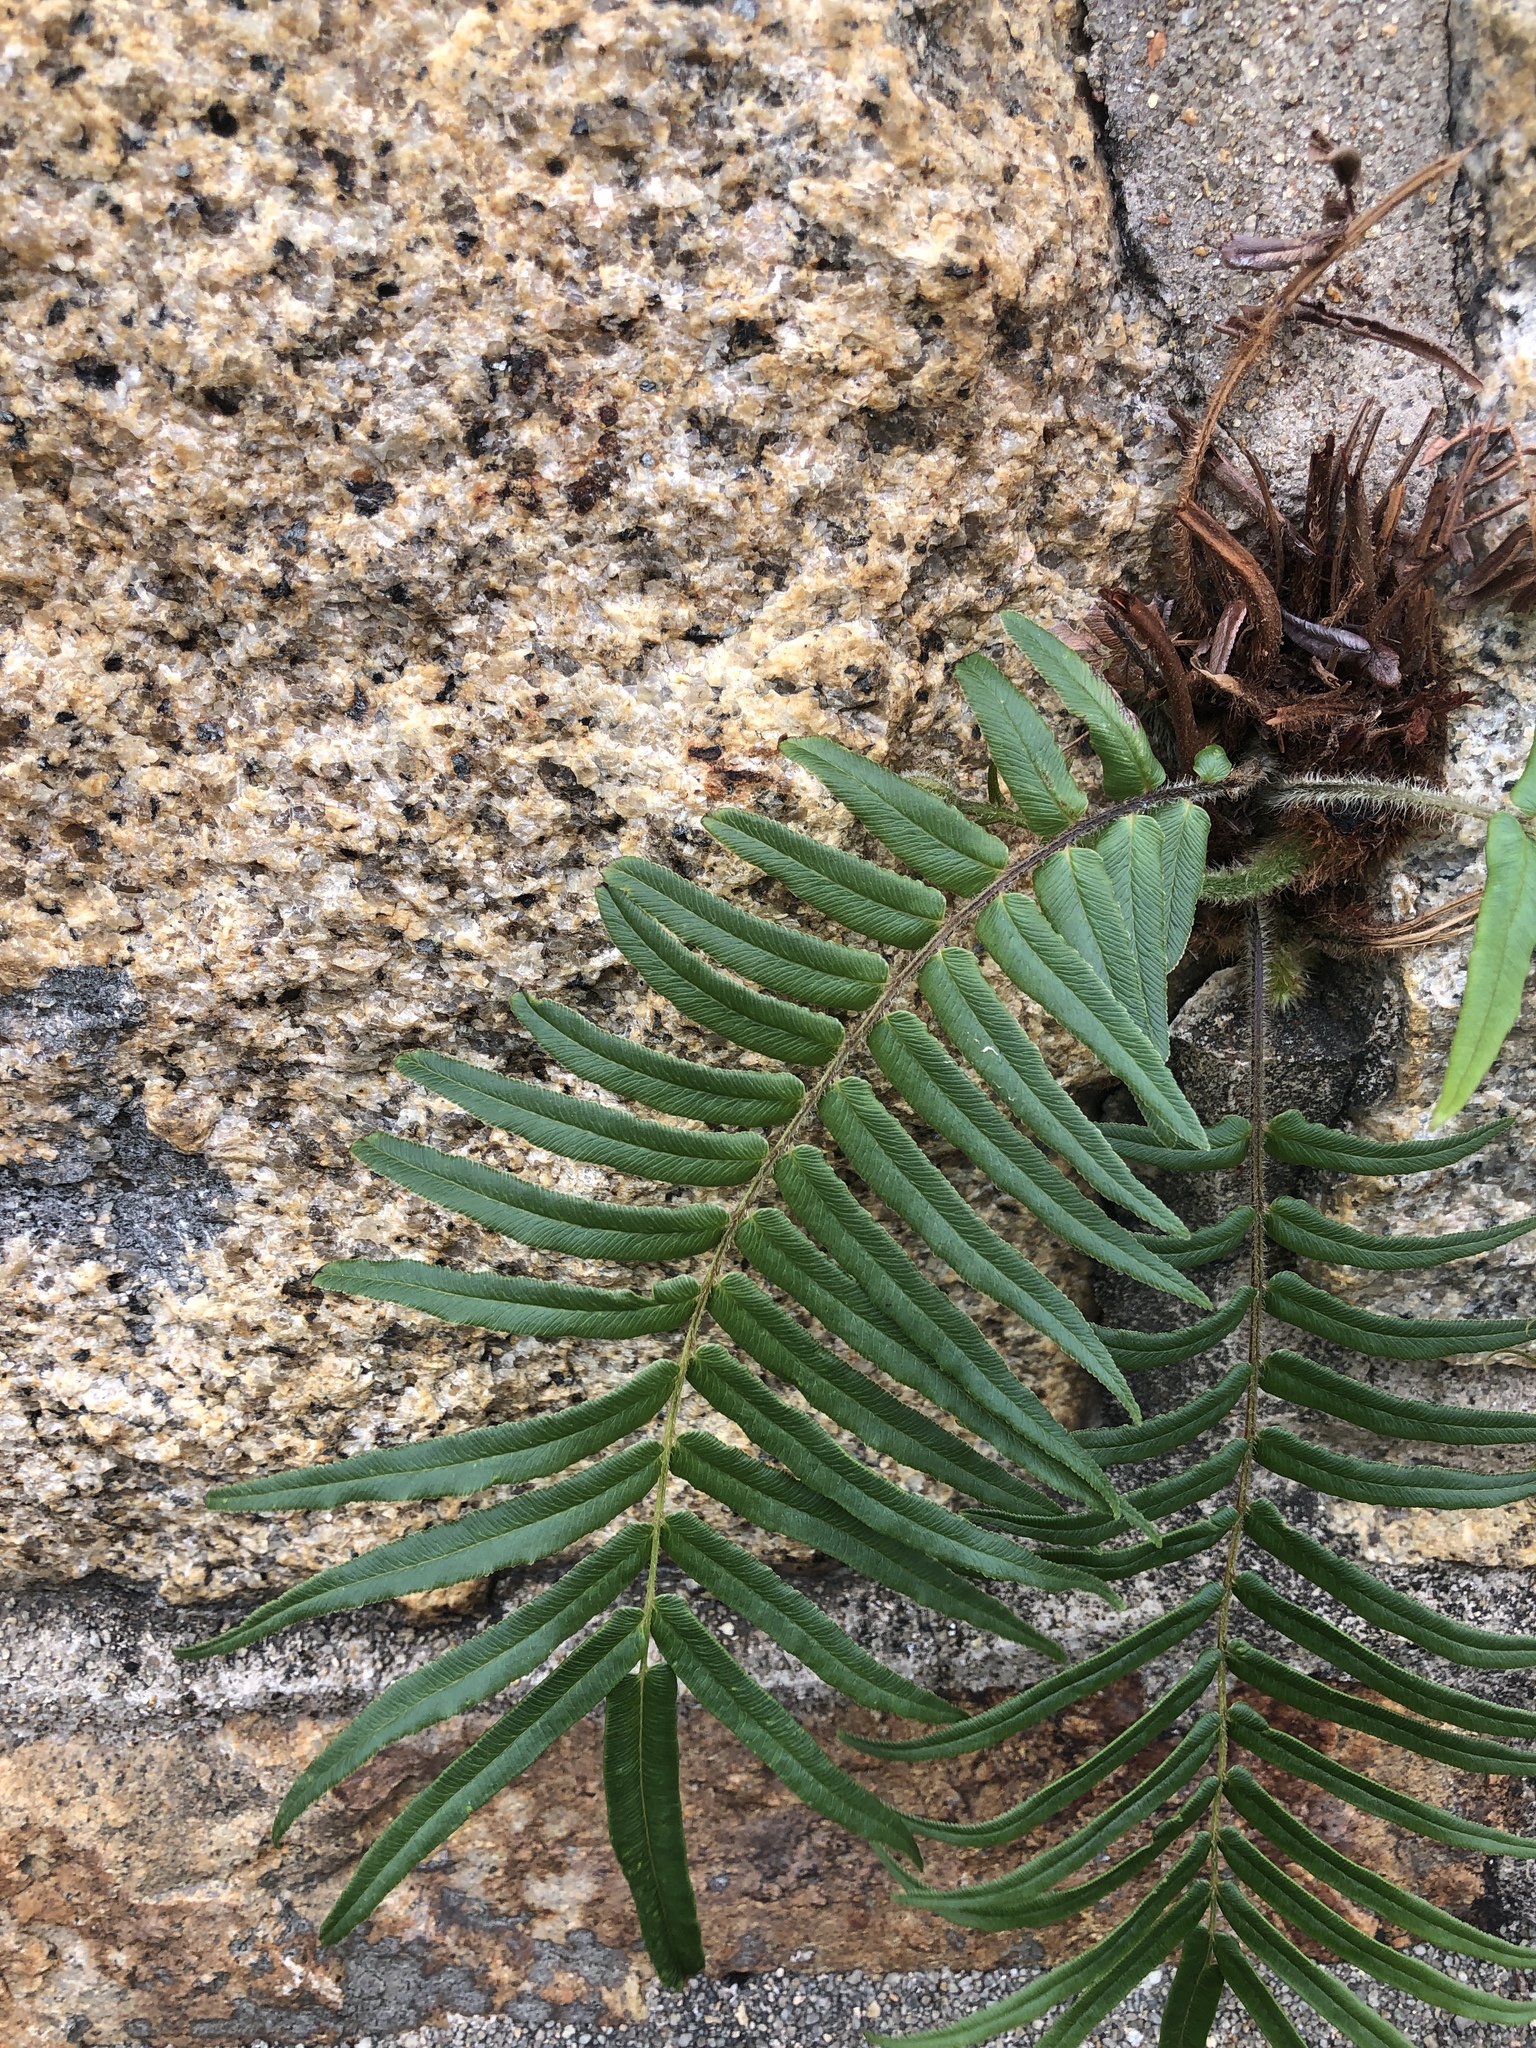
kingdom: Plantae
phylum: Tracheophyta
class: Polypodiopsida
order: Polypodiales
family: Pteridaceae
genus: Pteris
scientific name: Pteris vittata
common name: Ladder brake
